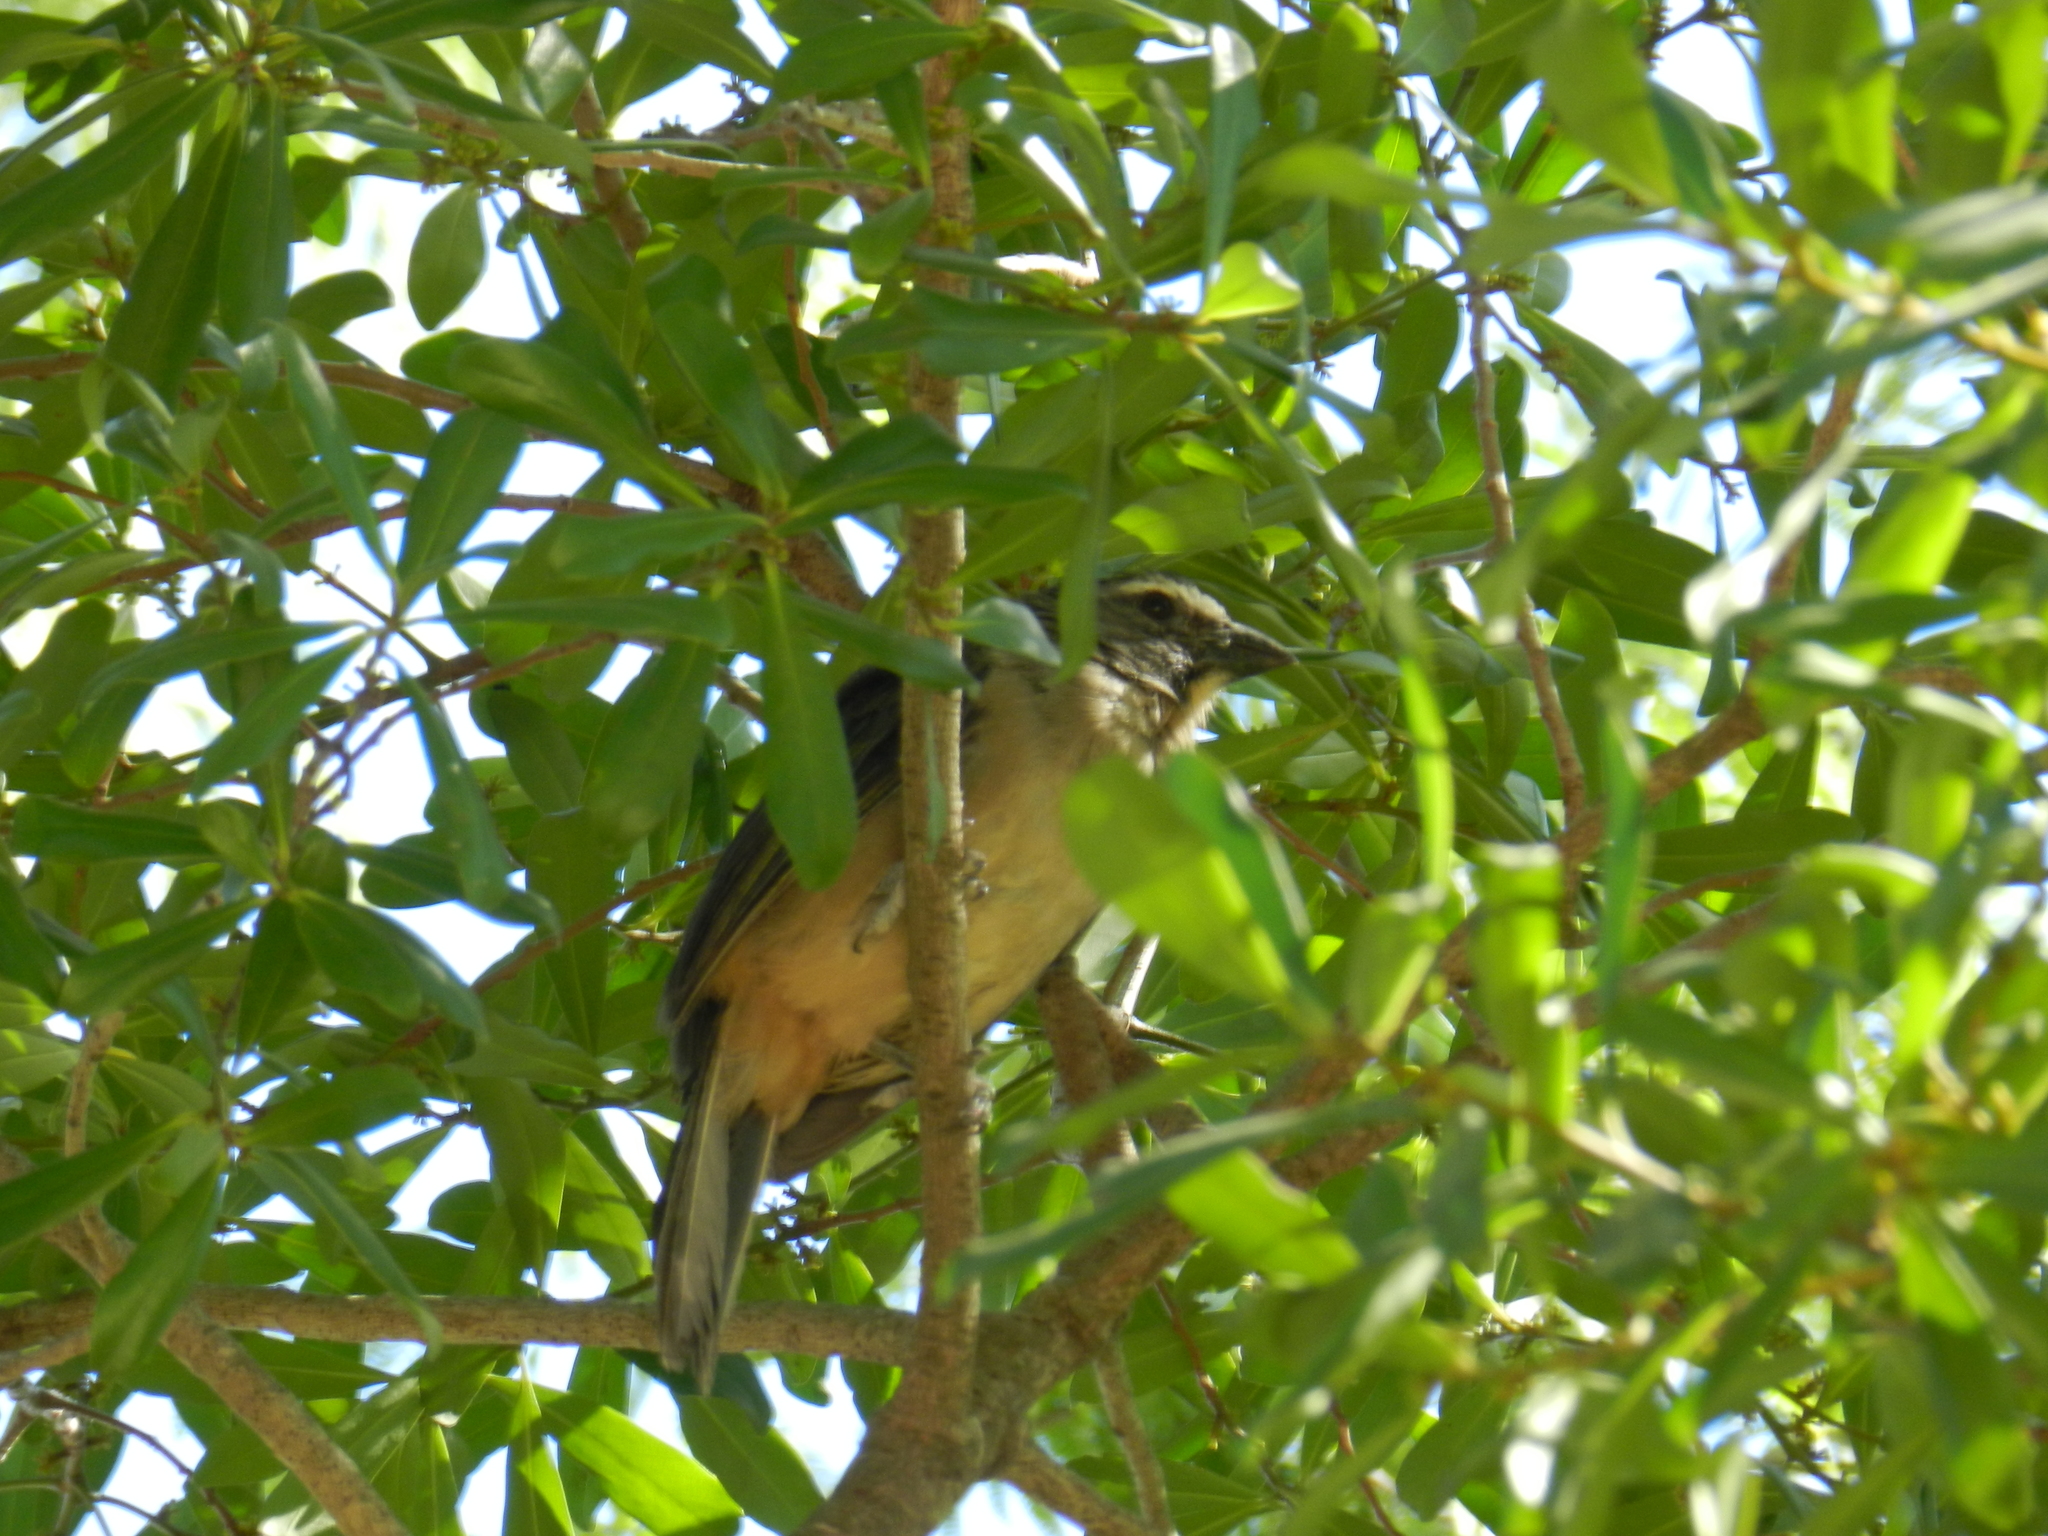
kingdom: Animalia
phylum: Chordata
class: Aves
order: Passeriformes
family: Thraupidae
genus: Saltator
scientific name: Saltator coerulescens
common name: Grayish saltator
